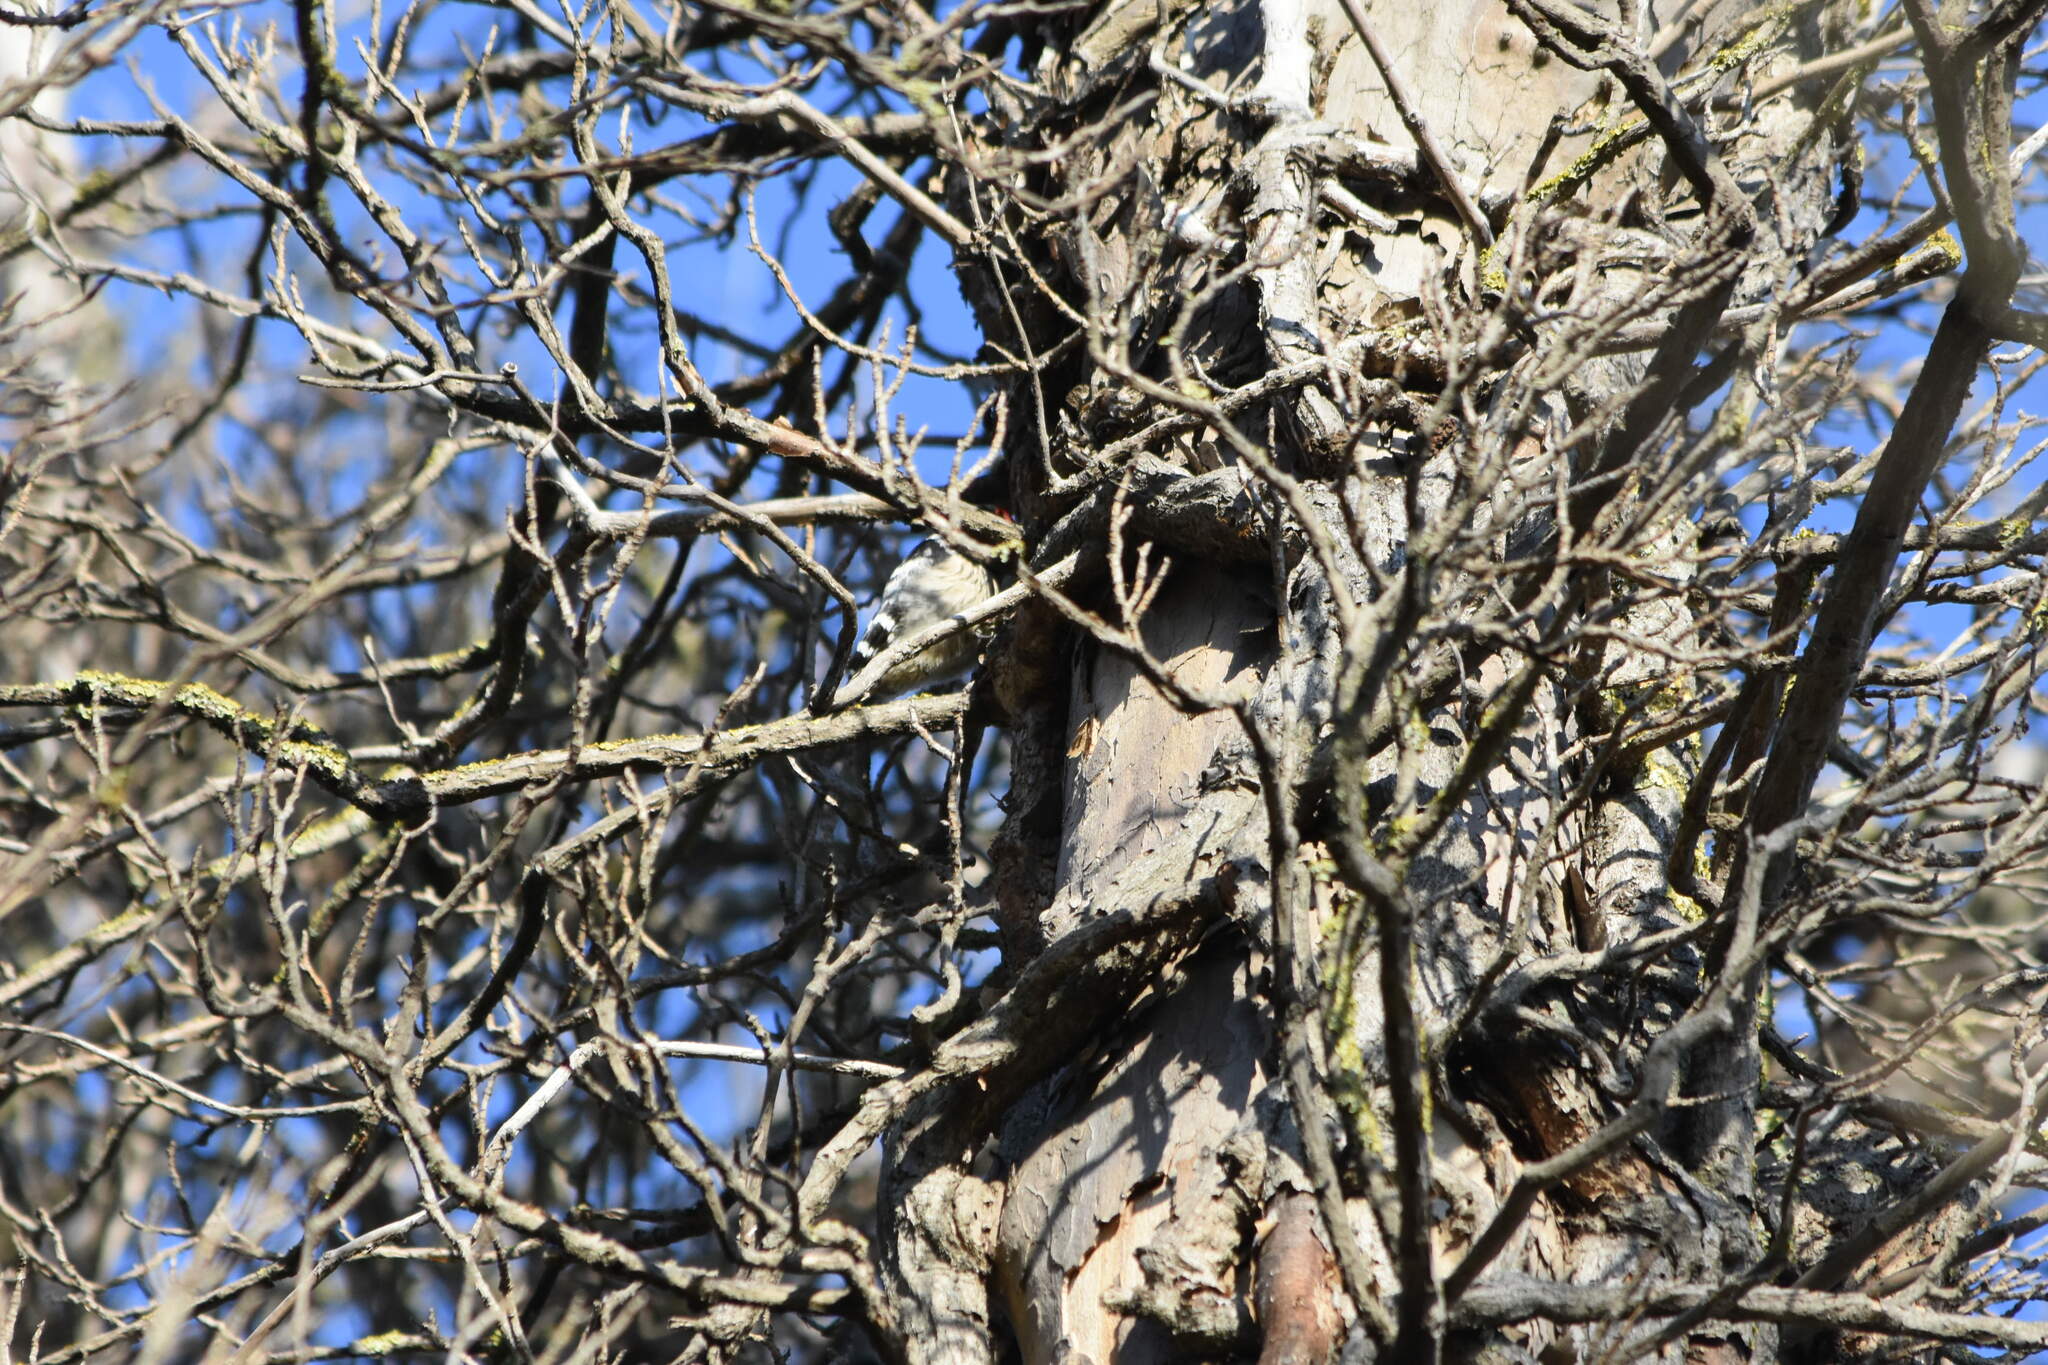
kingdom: Animalia
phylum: Chordata
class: Aves
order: Piciformes
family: Picidae
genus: Dryobates
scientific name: Dryobates minor
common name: Lesser spotted woodpecker
